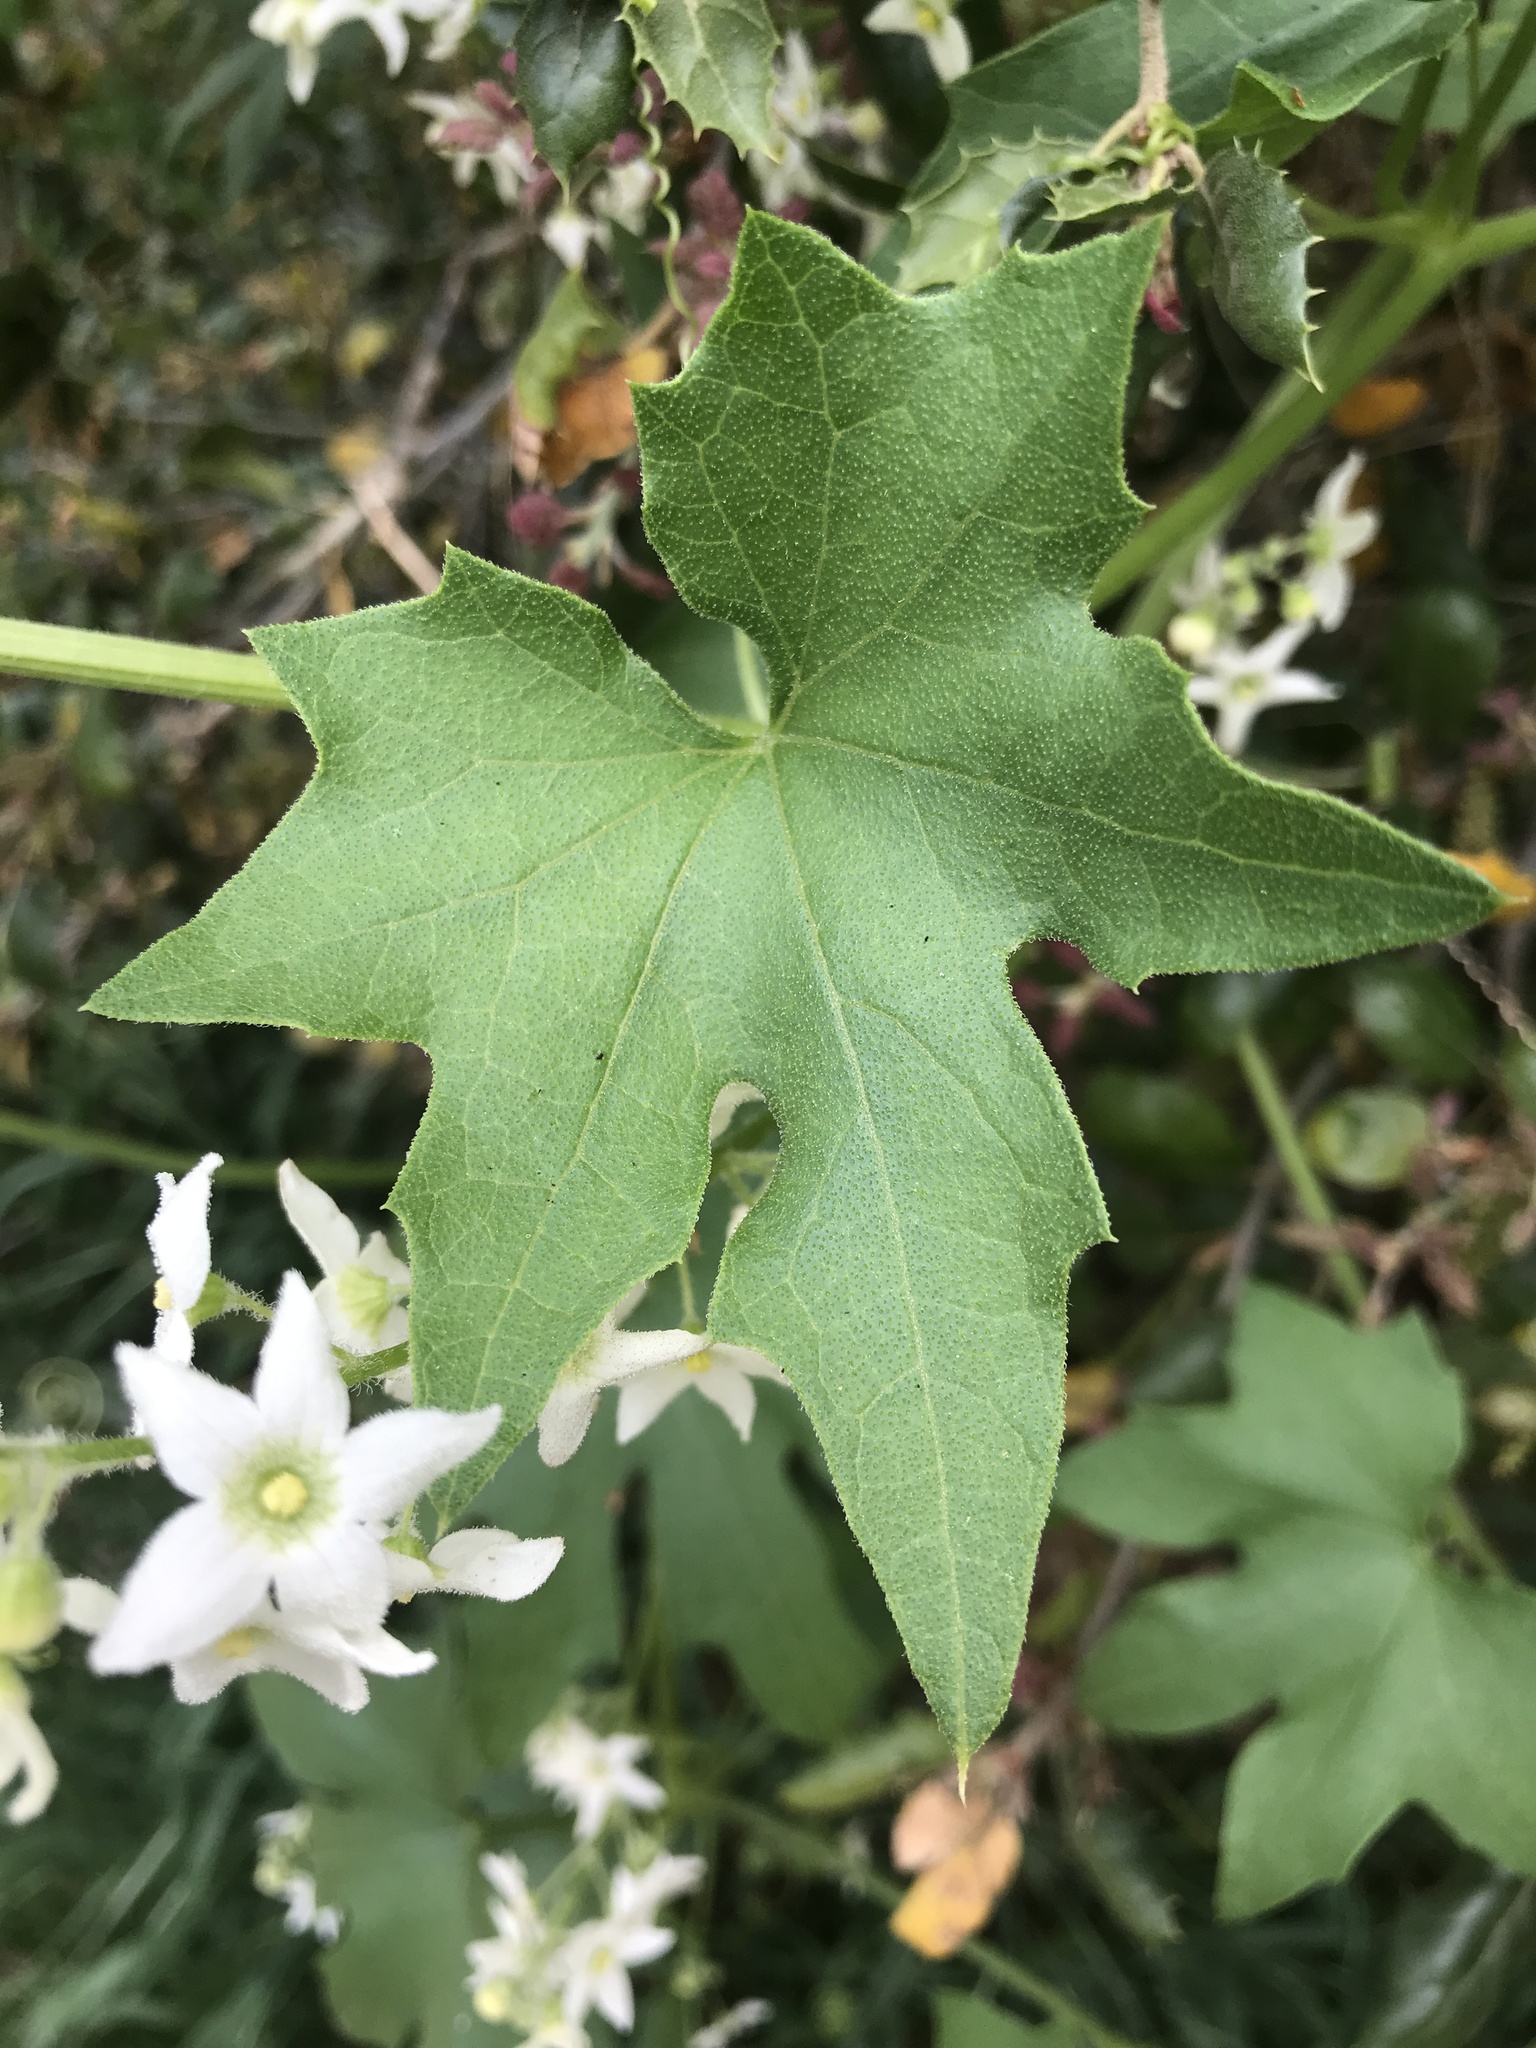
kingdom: Plantae
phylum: Tracheophyta
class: Magnoliopsida
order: Cucurbitales
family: Cucurbitaceae
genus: Marah
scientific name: Marah macrocarpa
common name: Cucamonga manroot
